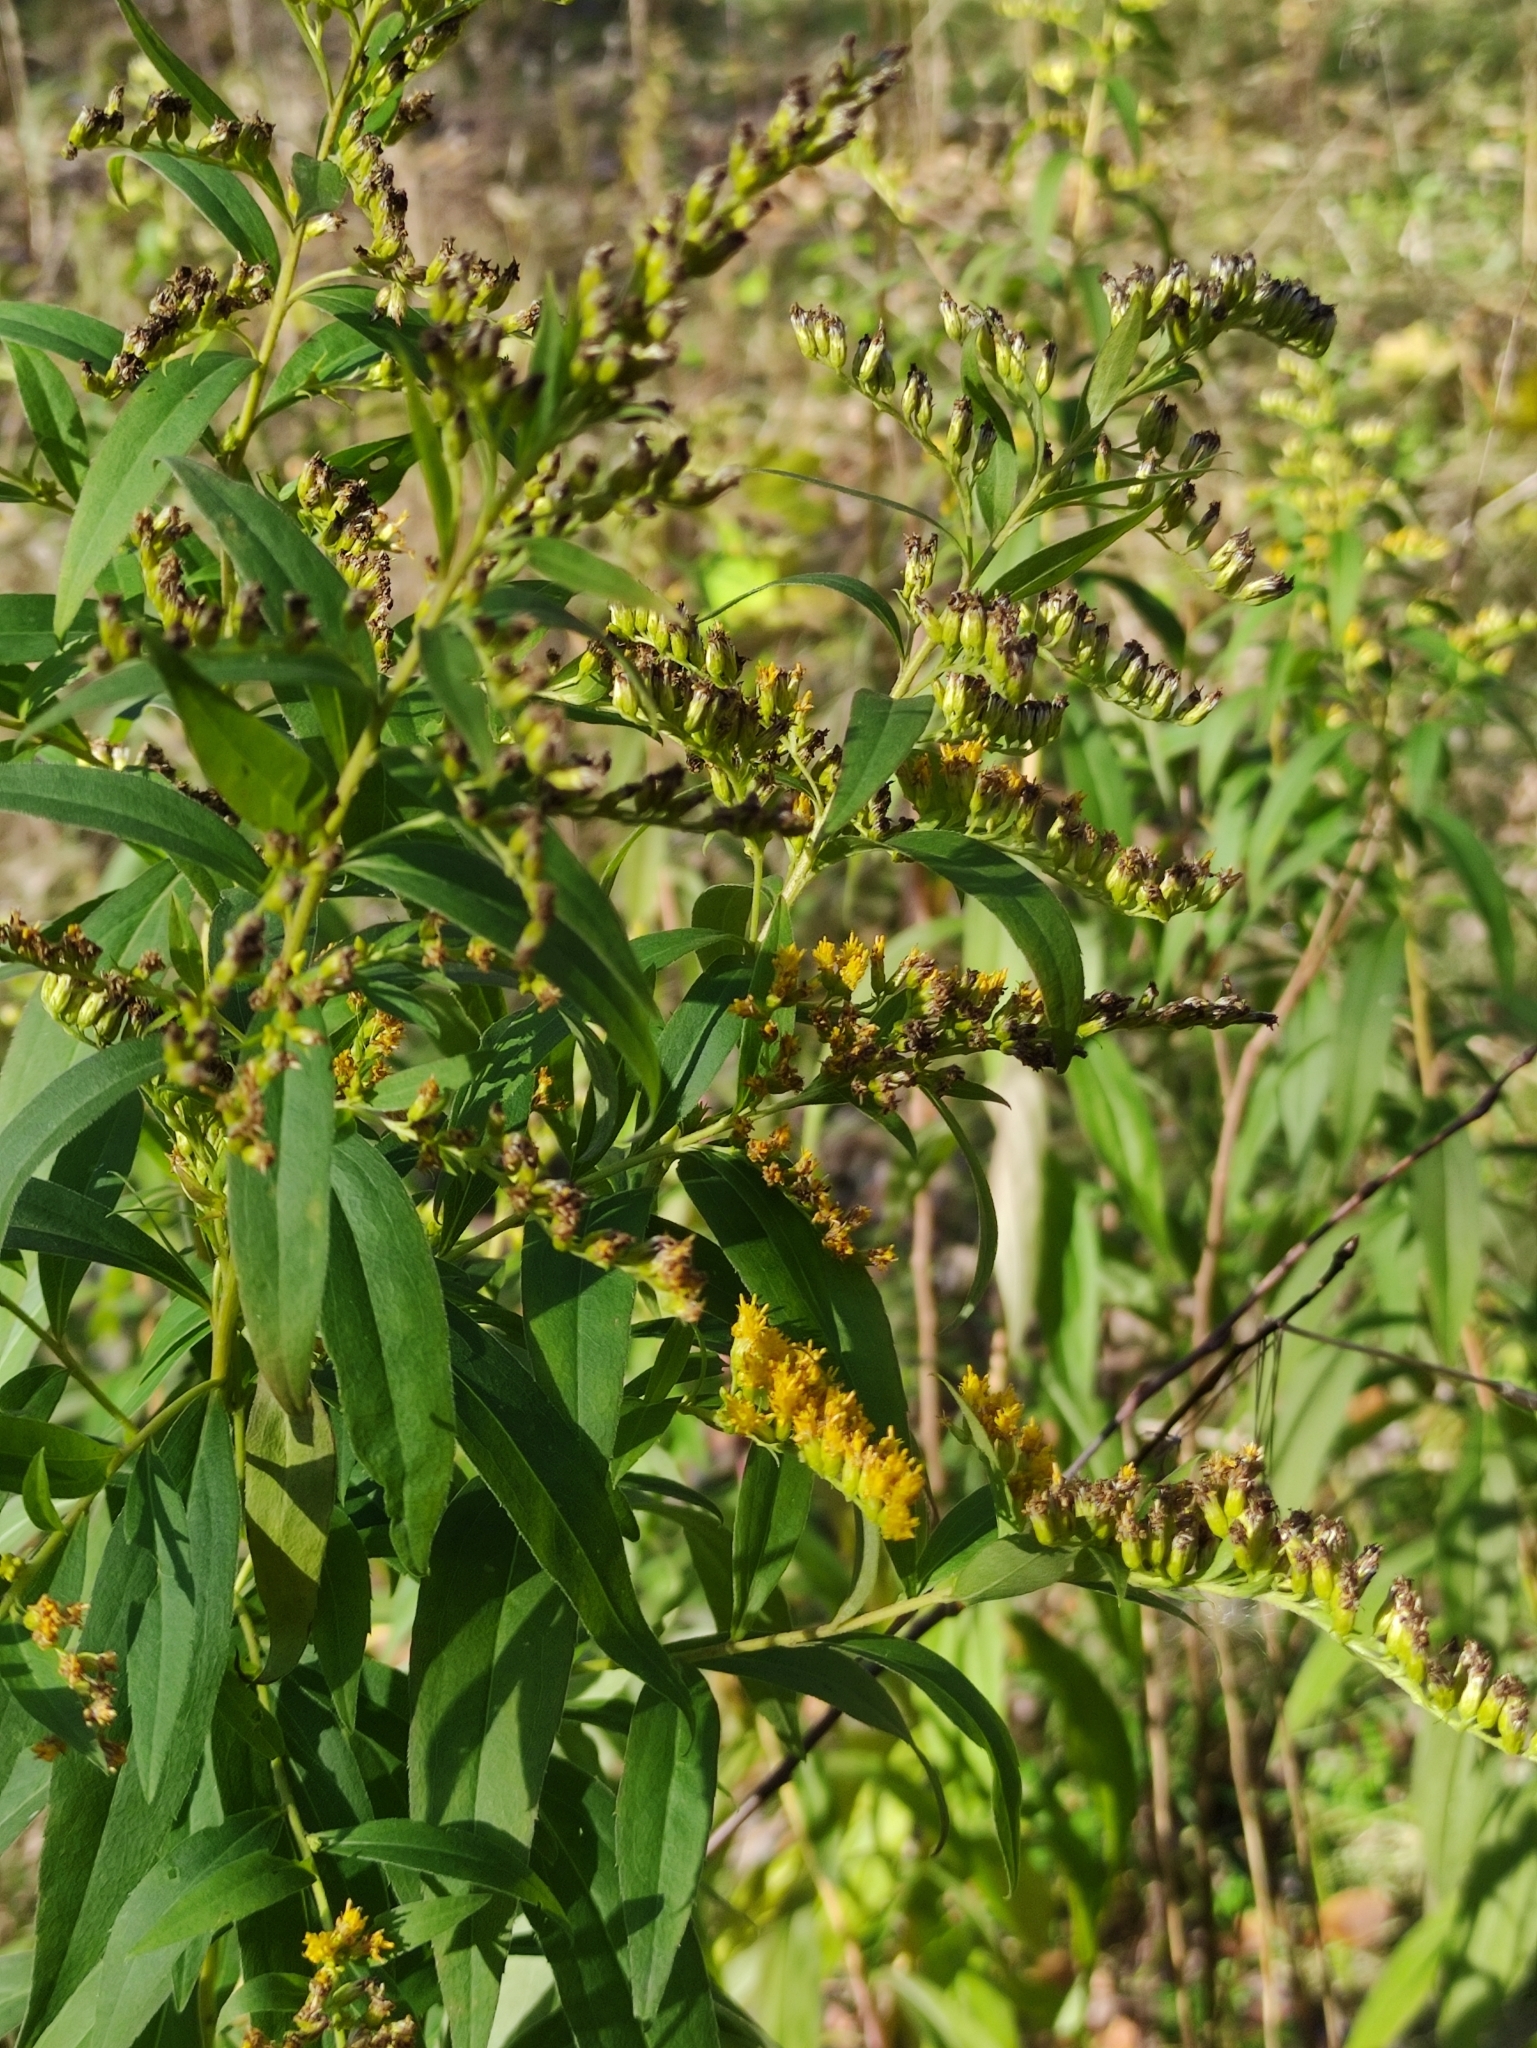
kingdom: Plantae
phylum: Tracheophyta
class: Magnoliopsida
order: Asterales
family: Asteraceae
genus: Solidago
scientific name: Solidago gigantea
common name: Giant goldenrod
